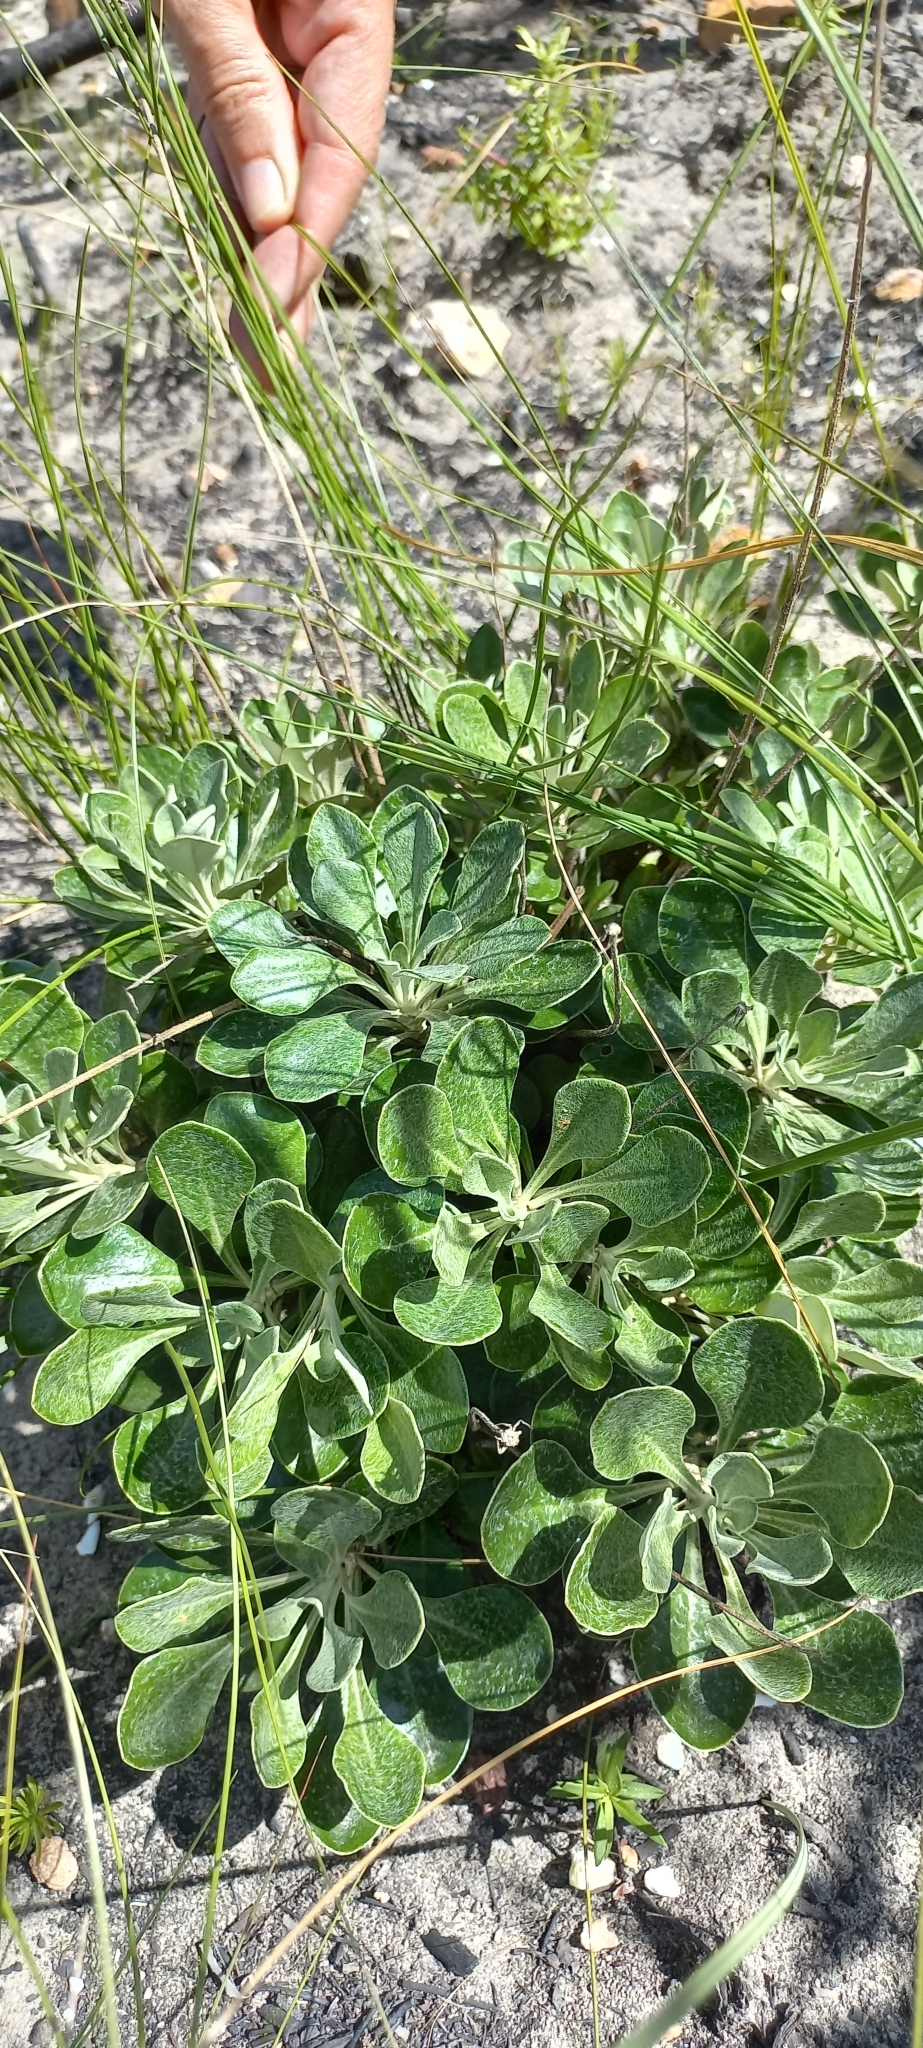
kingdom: Plantae
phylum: Tracheophyta
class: Magnoliopsida
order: Asterales
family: Asteraceae
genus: Osteospermum
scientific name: Osteospermum tomentosum
